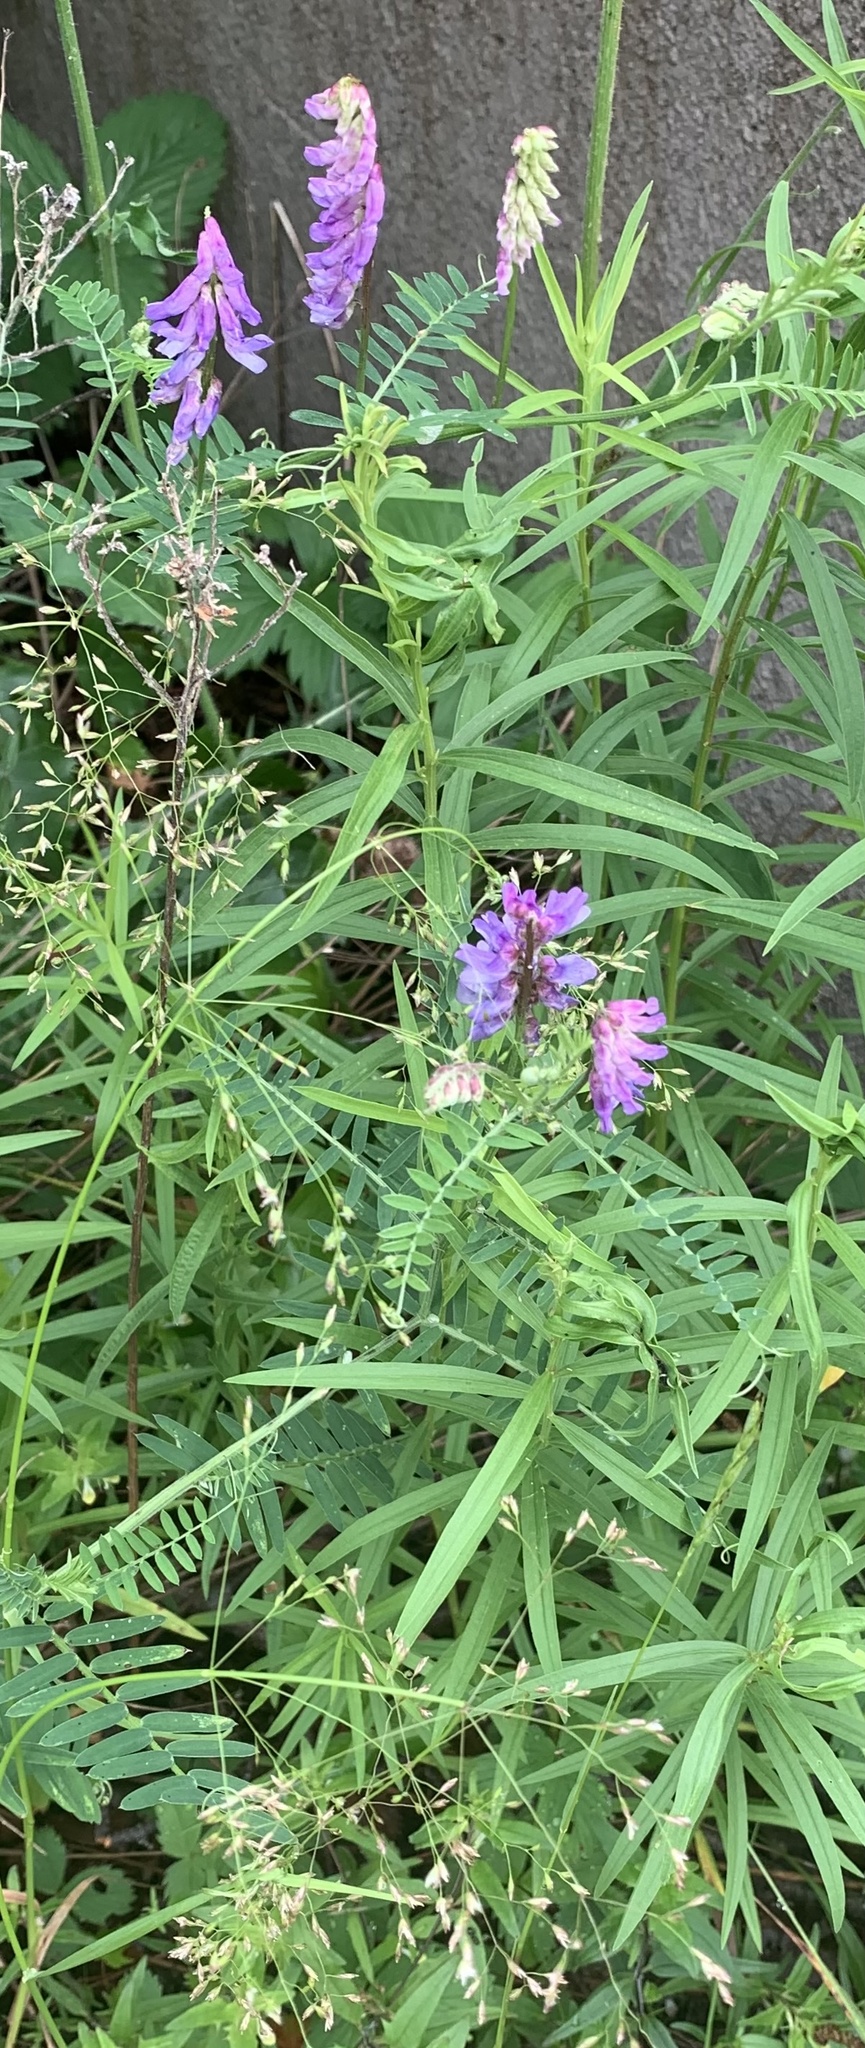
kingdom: Plantae
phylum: Tracheophyta
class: Magnoliopsida
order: Fabales
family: Fabaceae
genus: Vicia
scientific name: Vicia cracca
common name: Bird vetch
